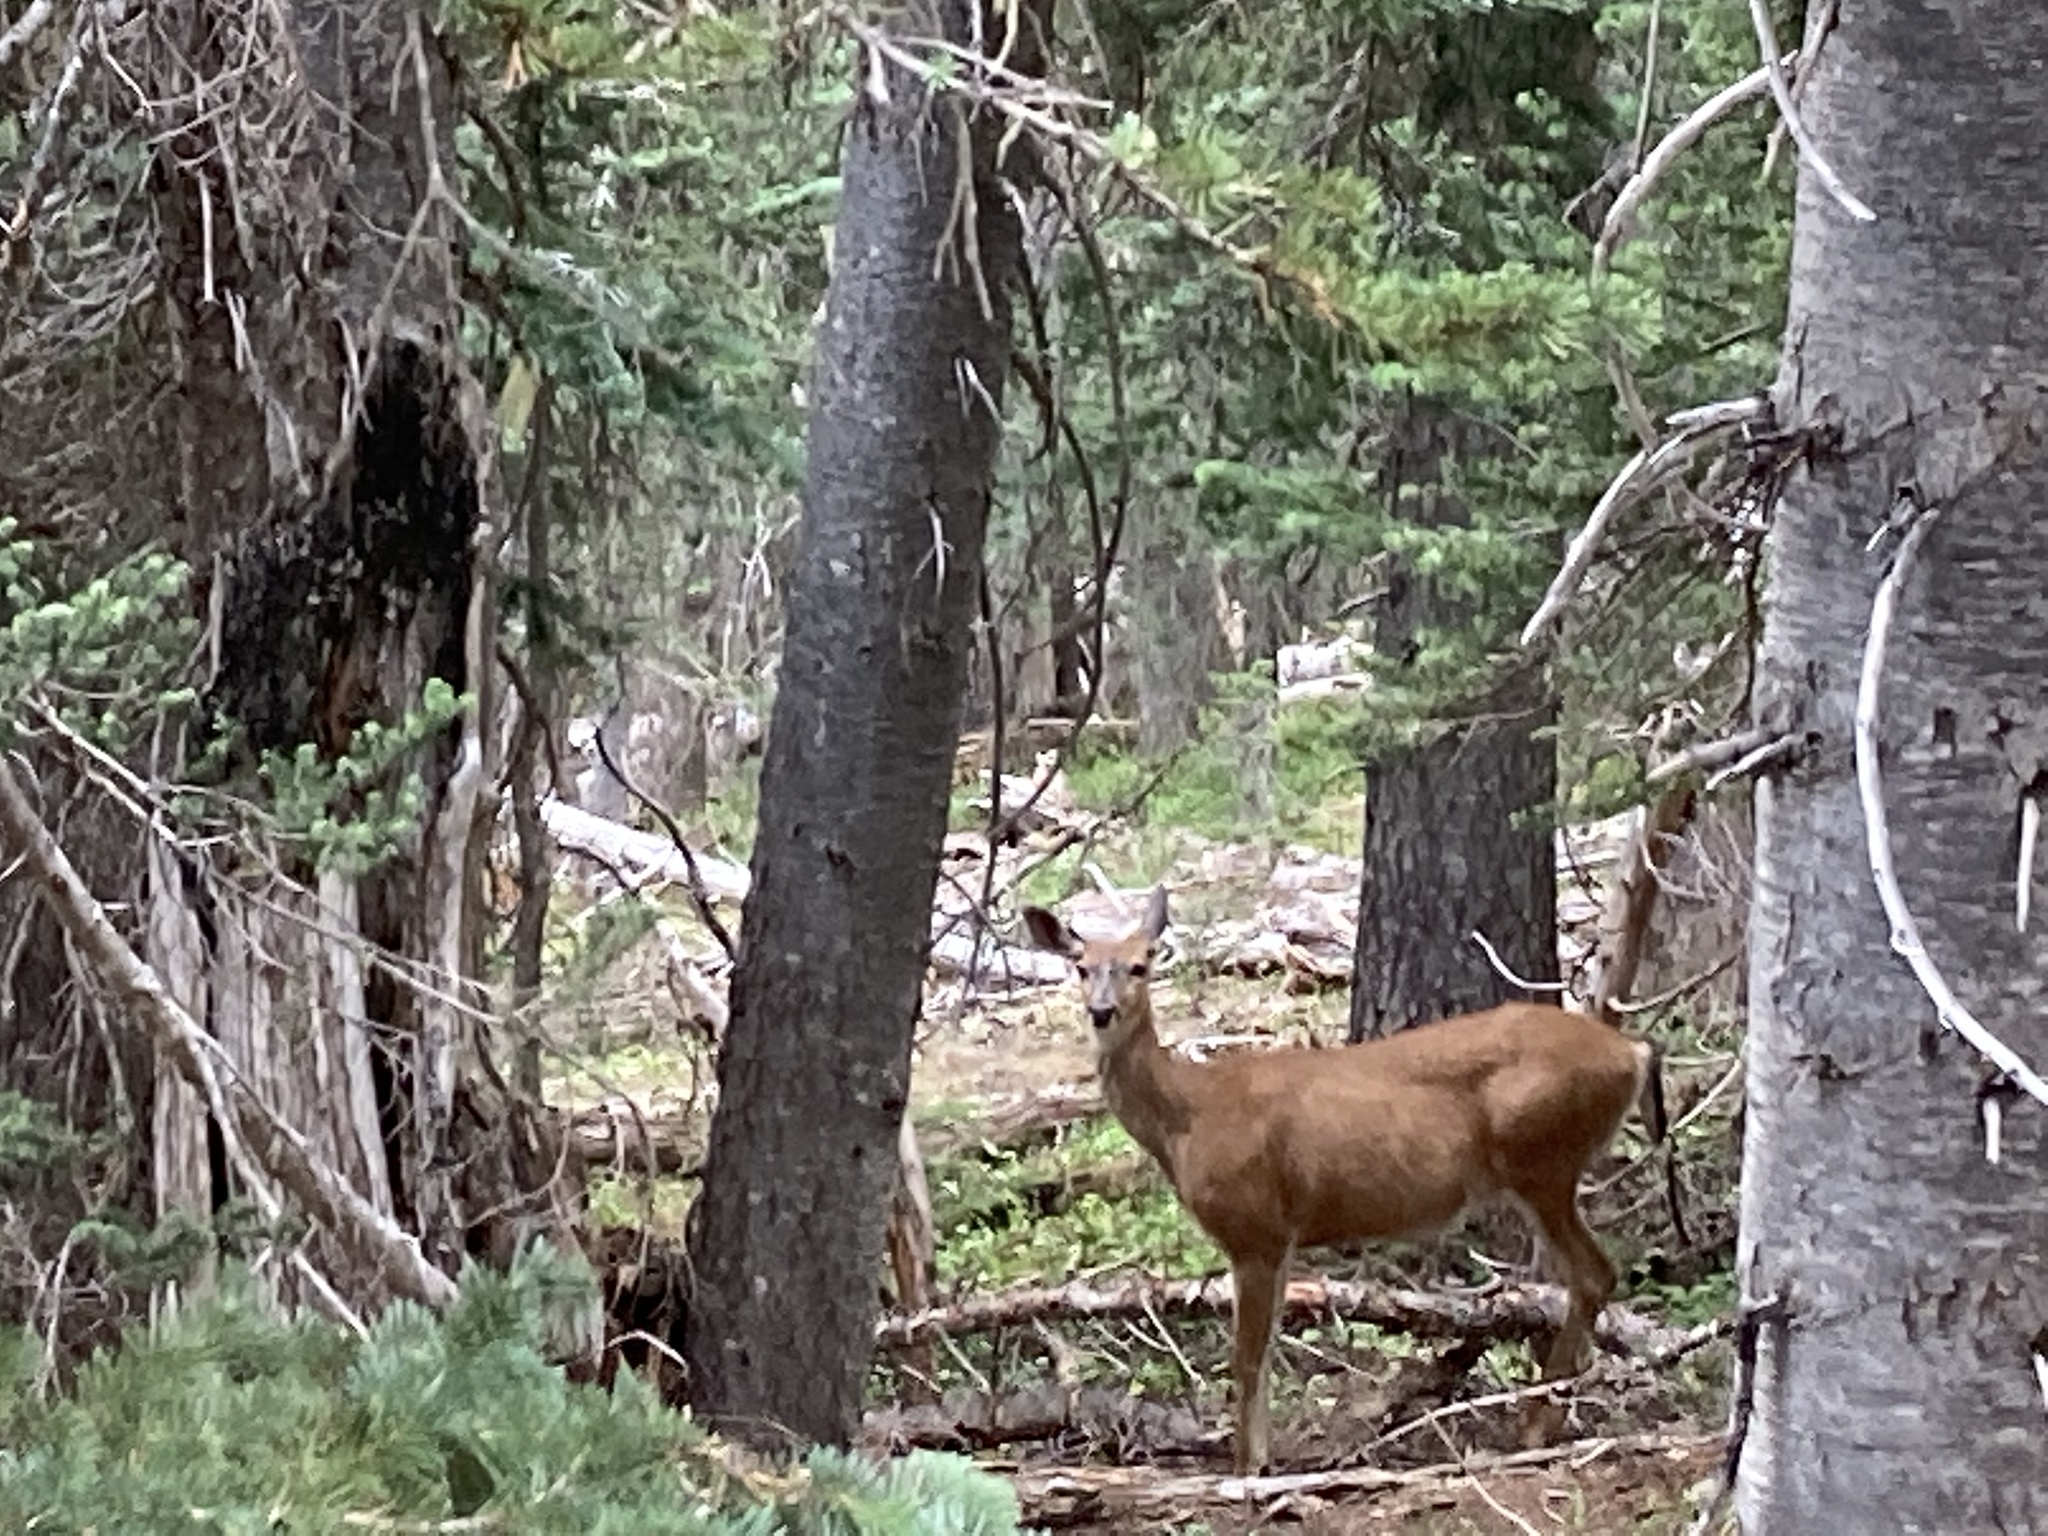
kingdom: Animalia
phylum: Chordata
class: Mammalia
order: Artiodactyla
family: Cervidae
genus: Odocoileus
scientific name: Odocoileus hemionus
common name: Mule deer
